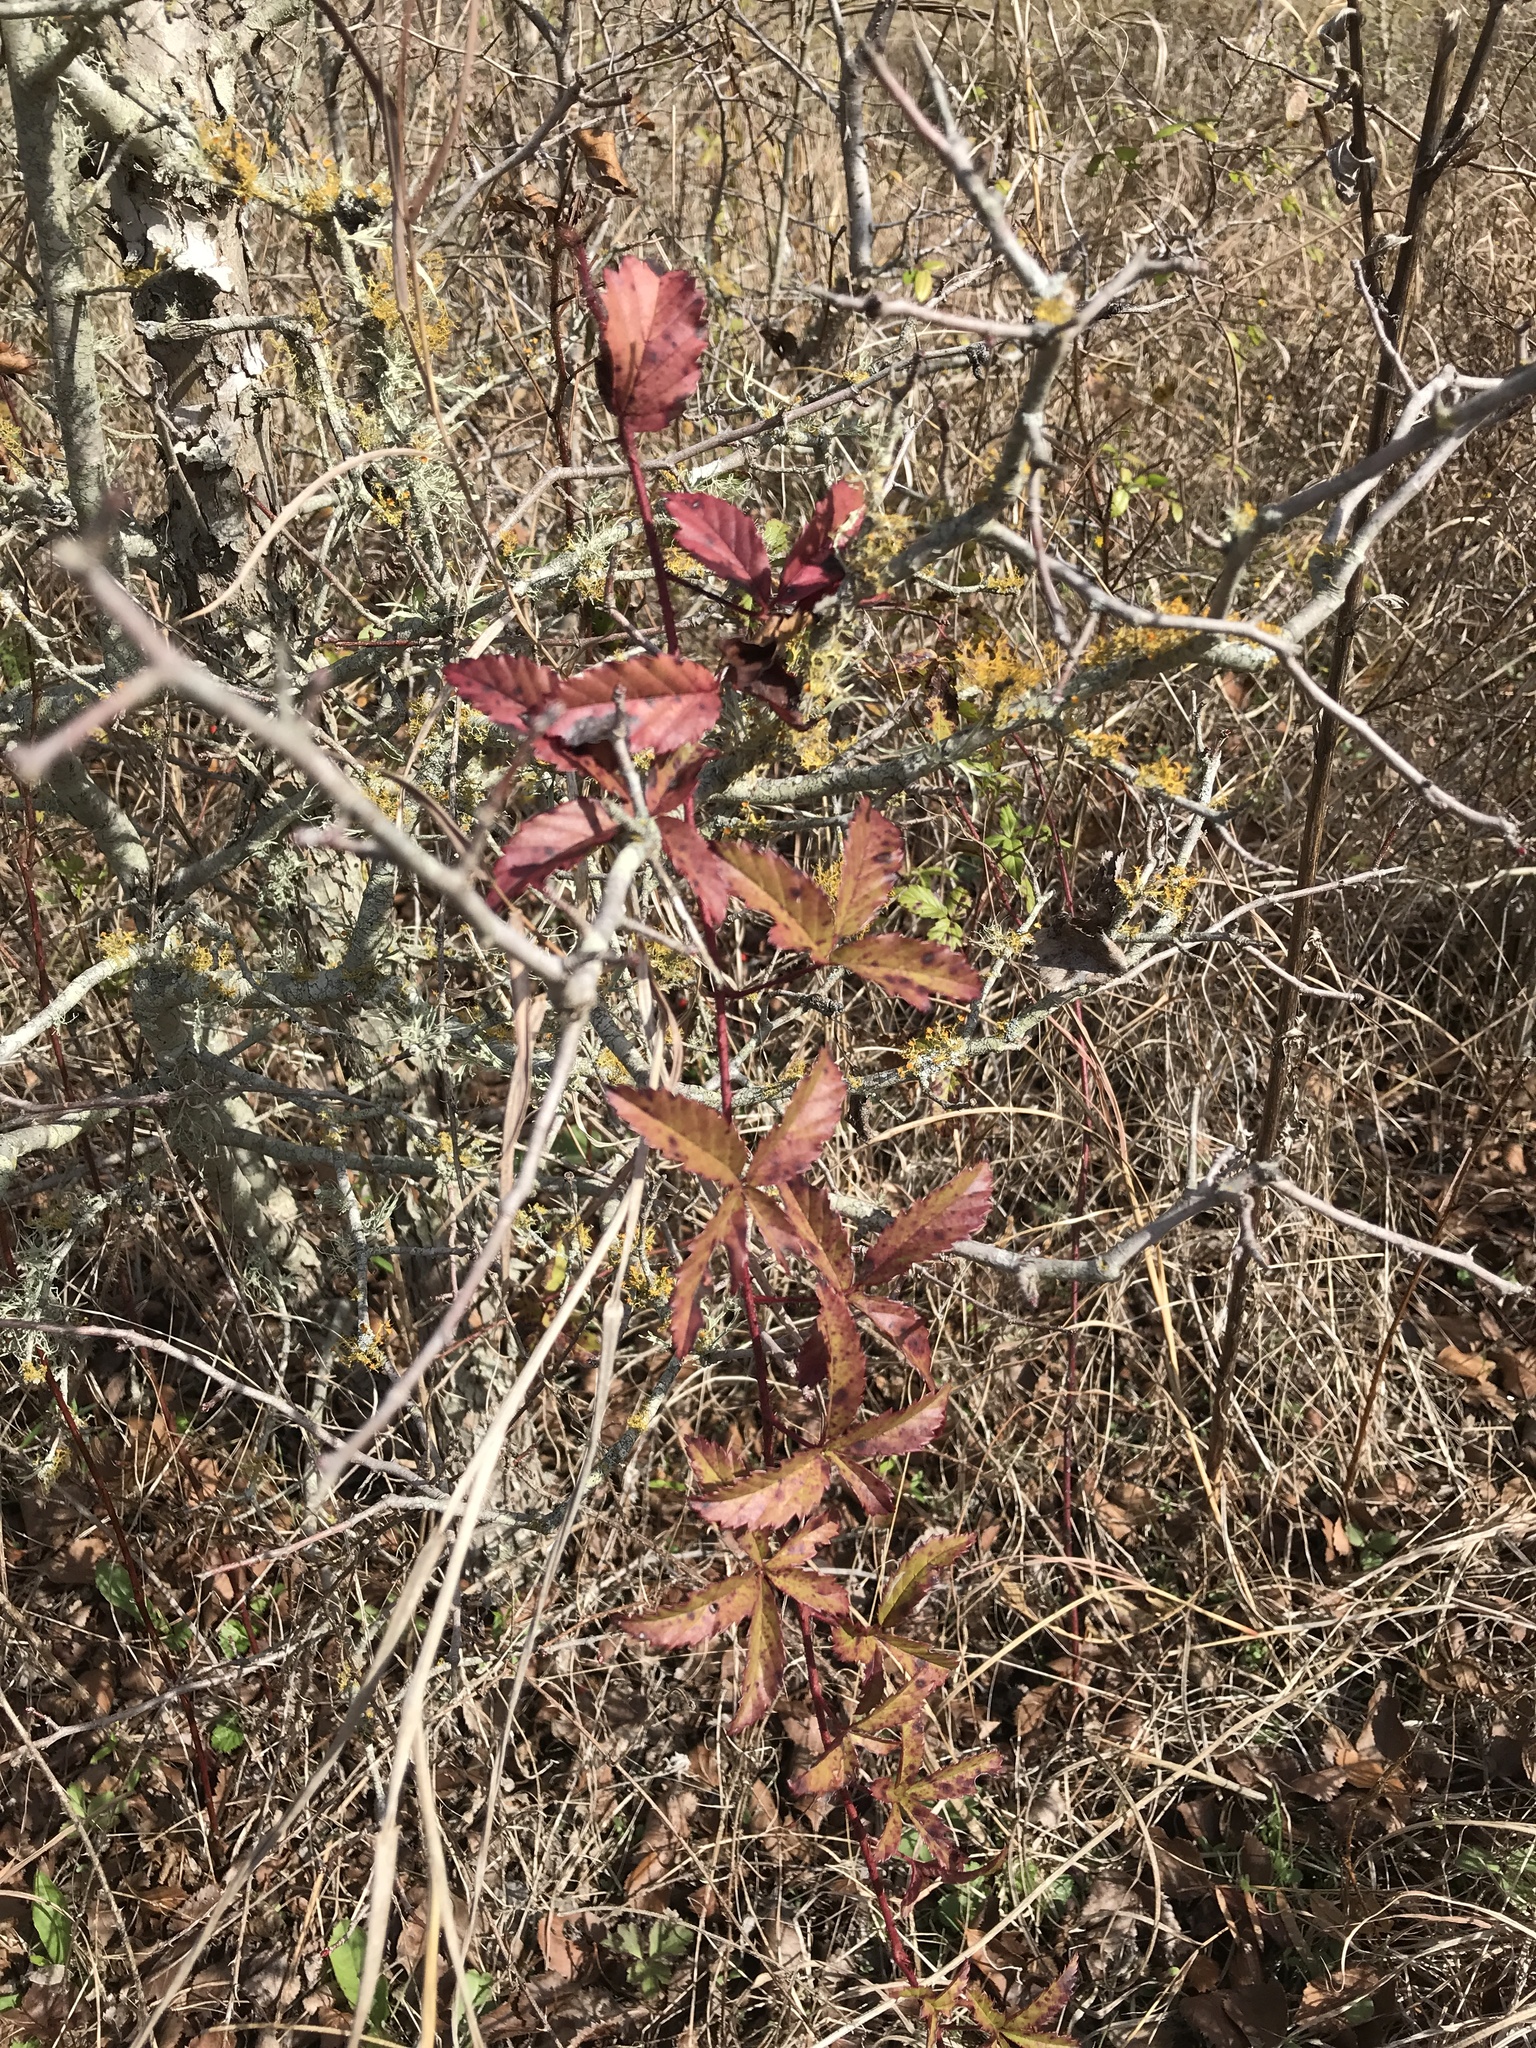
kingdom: Plantae
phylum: Tracheophyta
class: Magnoliopsida
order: Rosales
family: Rosaceae
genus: Rubus
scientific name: Rubus trivialis
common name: Southern dewberry
